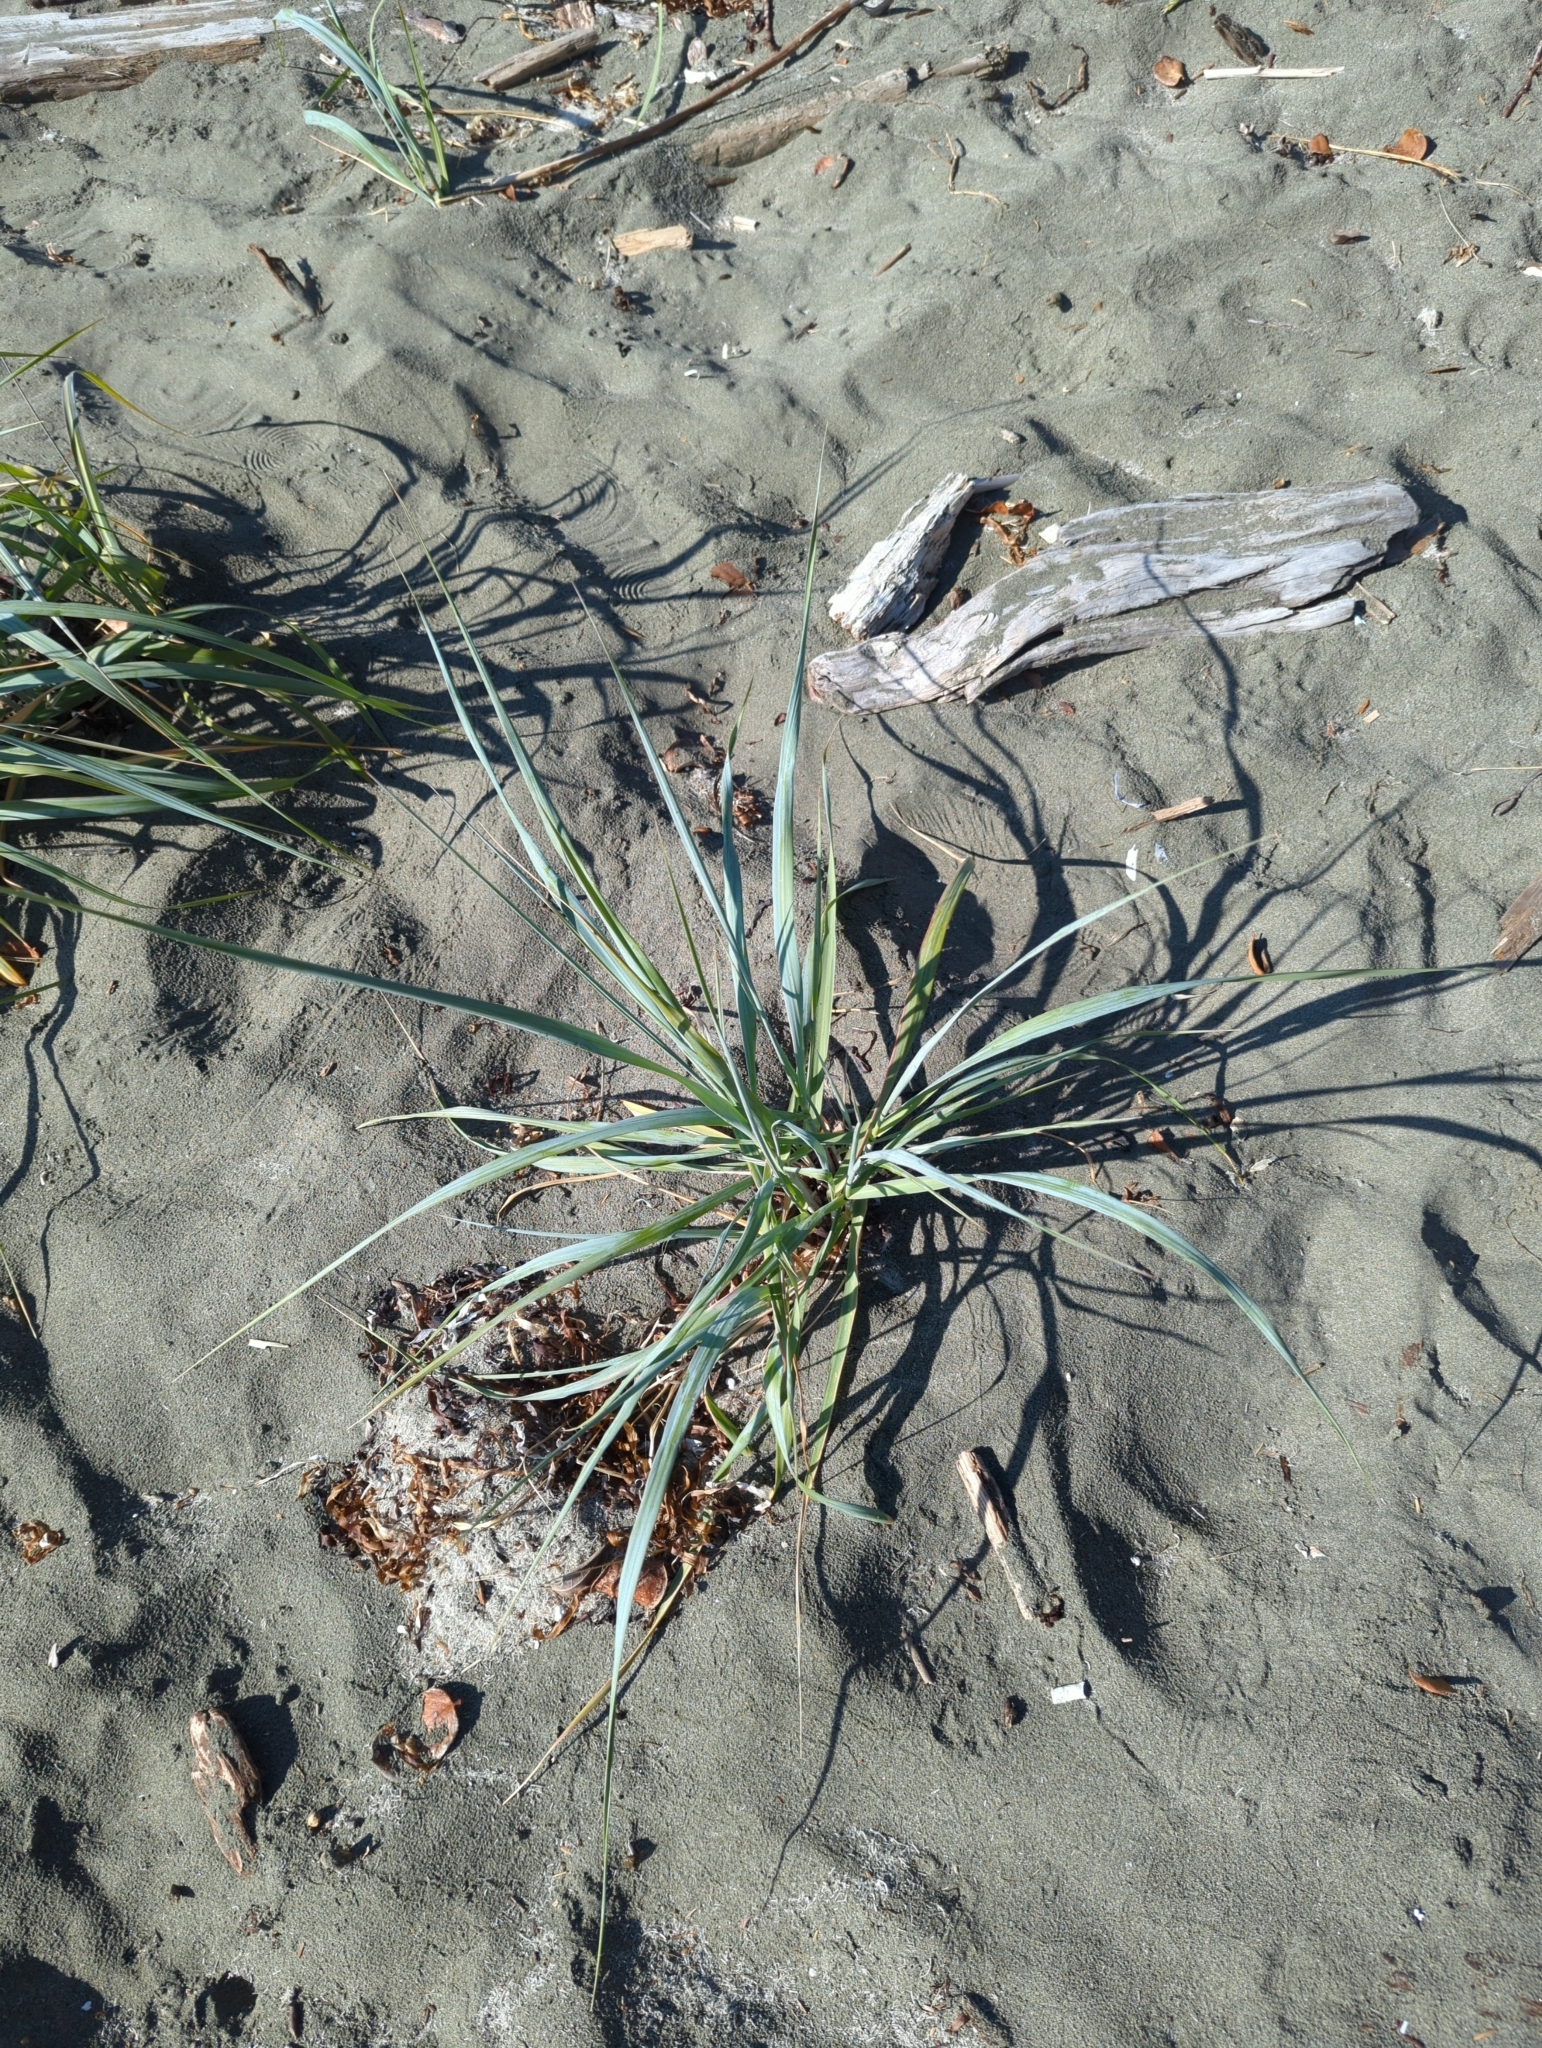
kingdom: Plantae
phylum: Tracheophyta
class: Liliopsida
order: Poales
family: Poaceae
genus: Leymus
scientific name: Leymus mollis
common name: American dune grass
